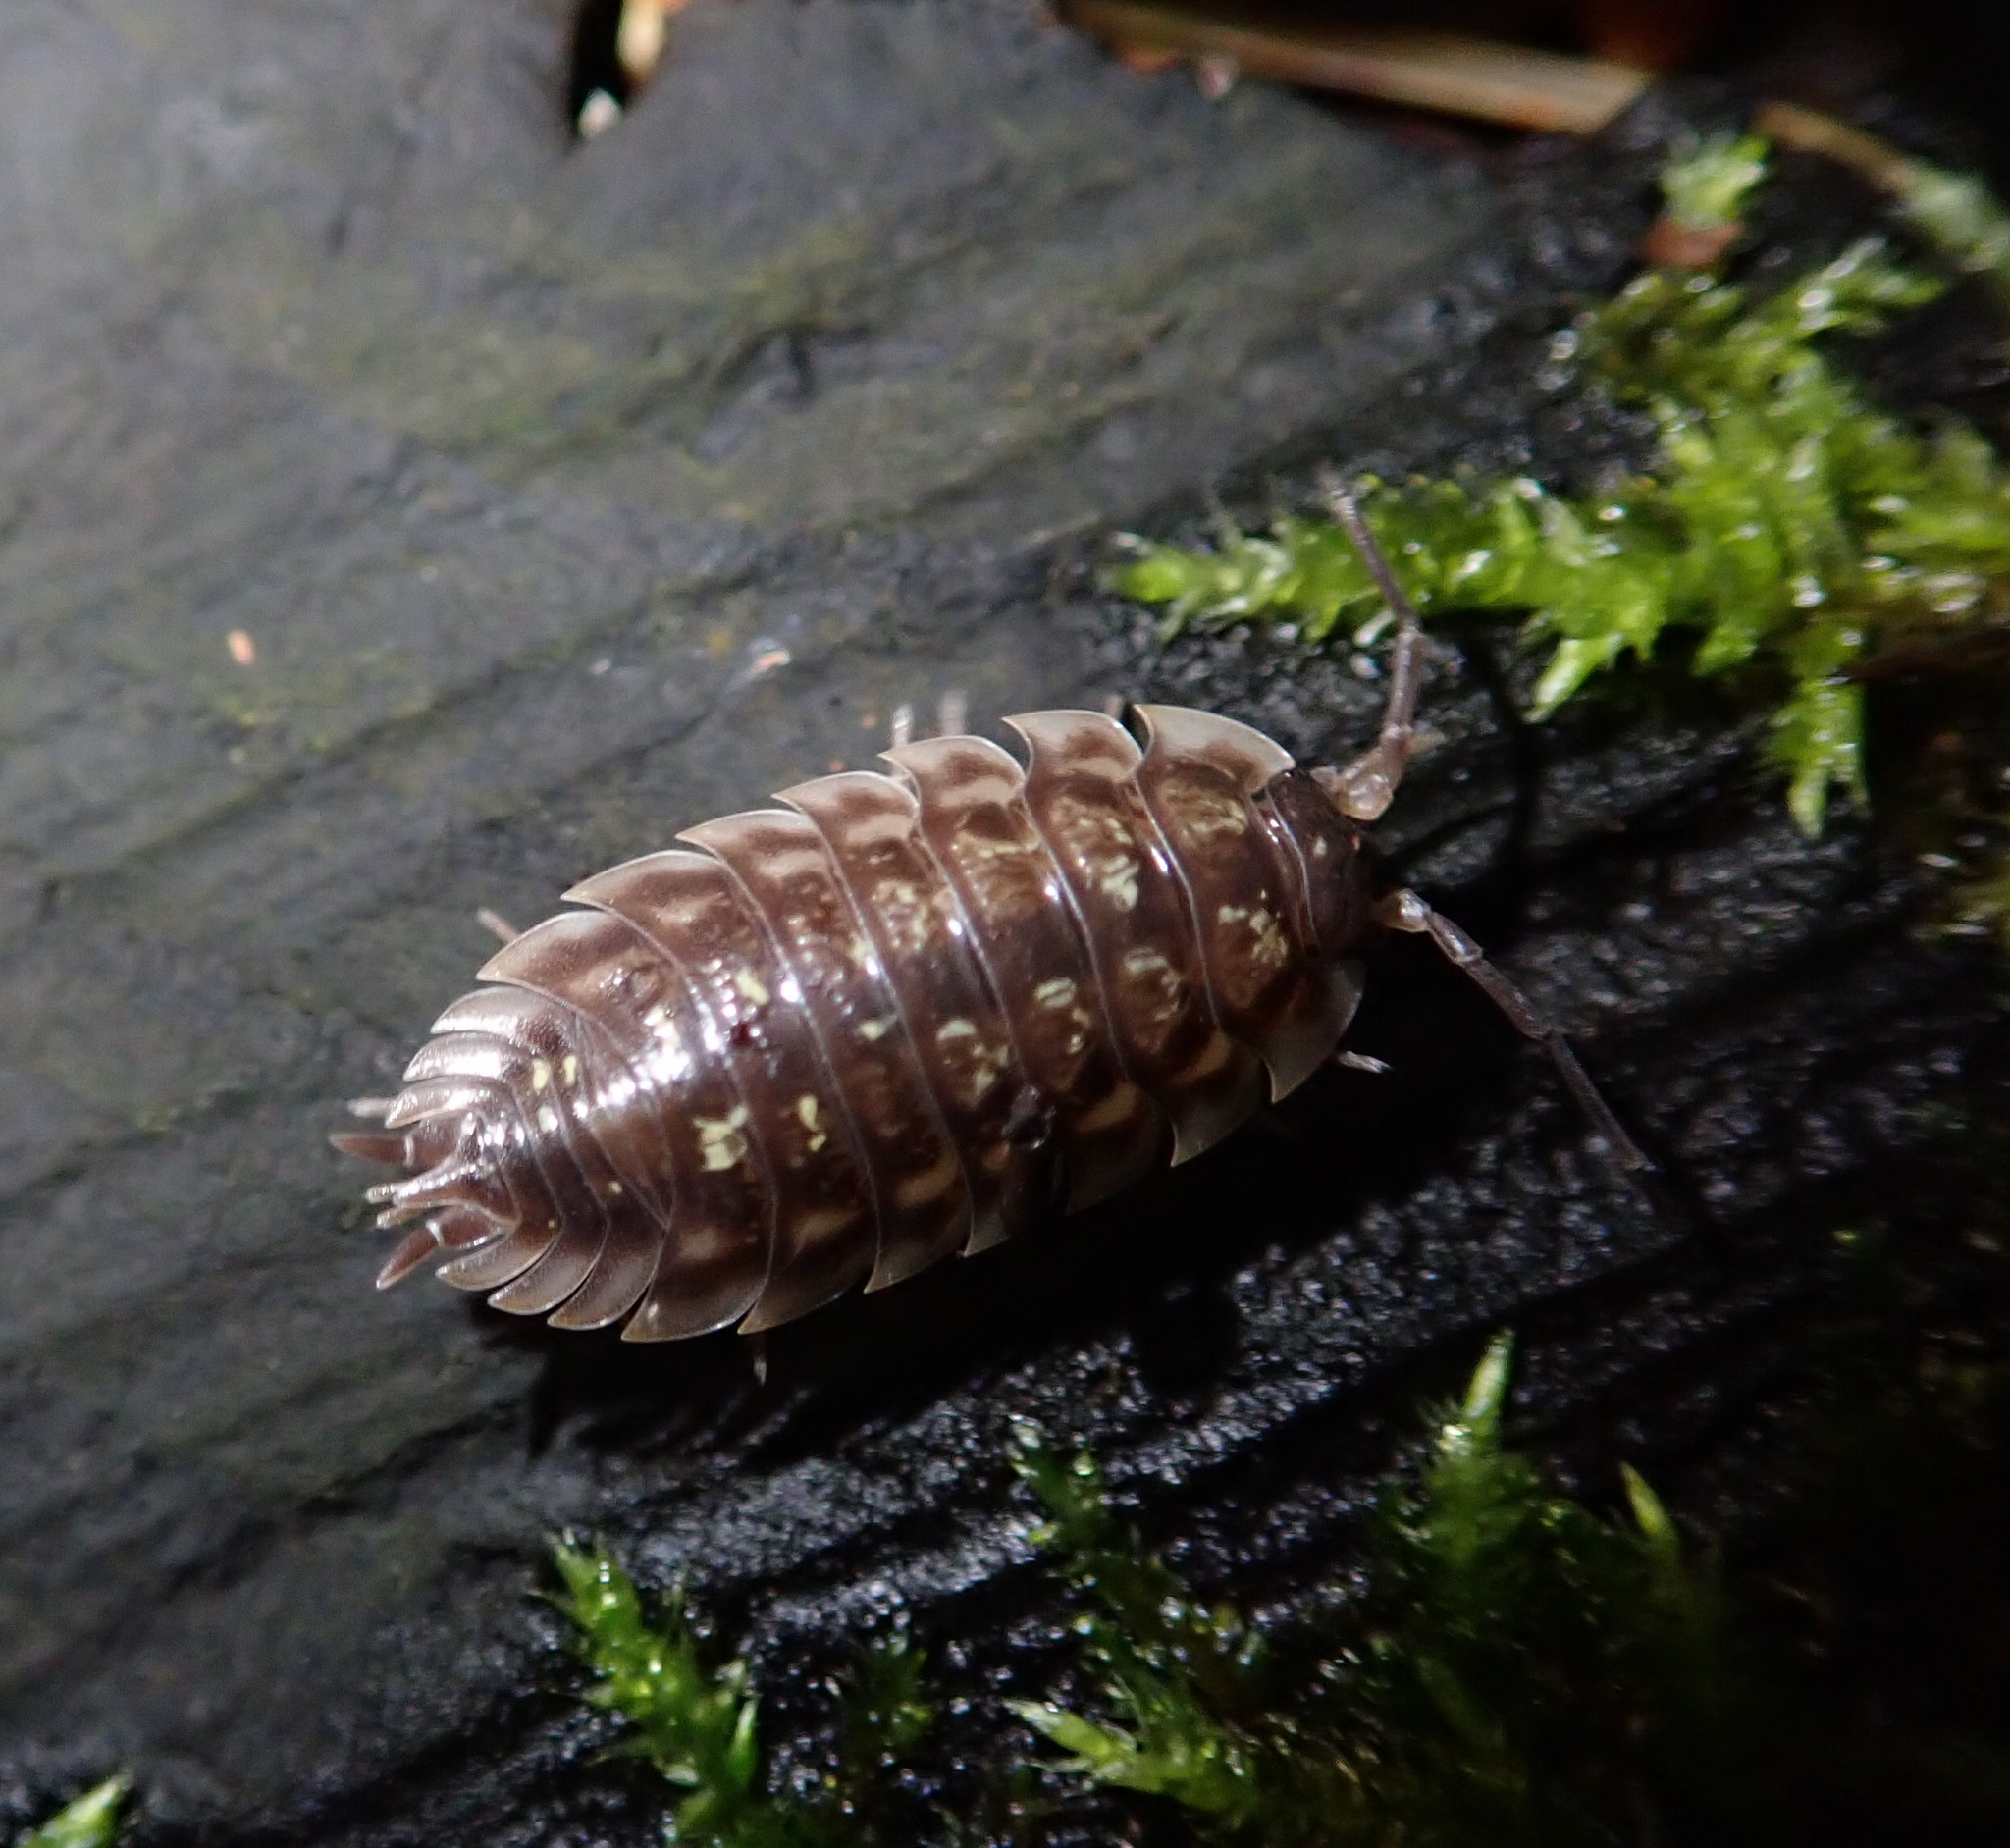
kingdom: Animalia
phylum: Arthropoda
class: Malacostraca
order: Isopoda
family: Oniscidae
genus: Oniscus
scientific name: Oniscus asellus
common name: Common shiny woodlouse
